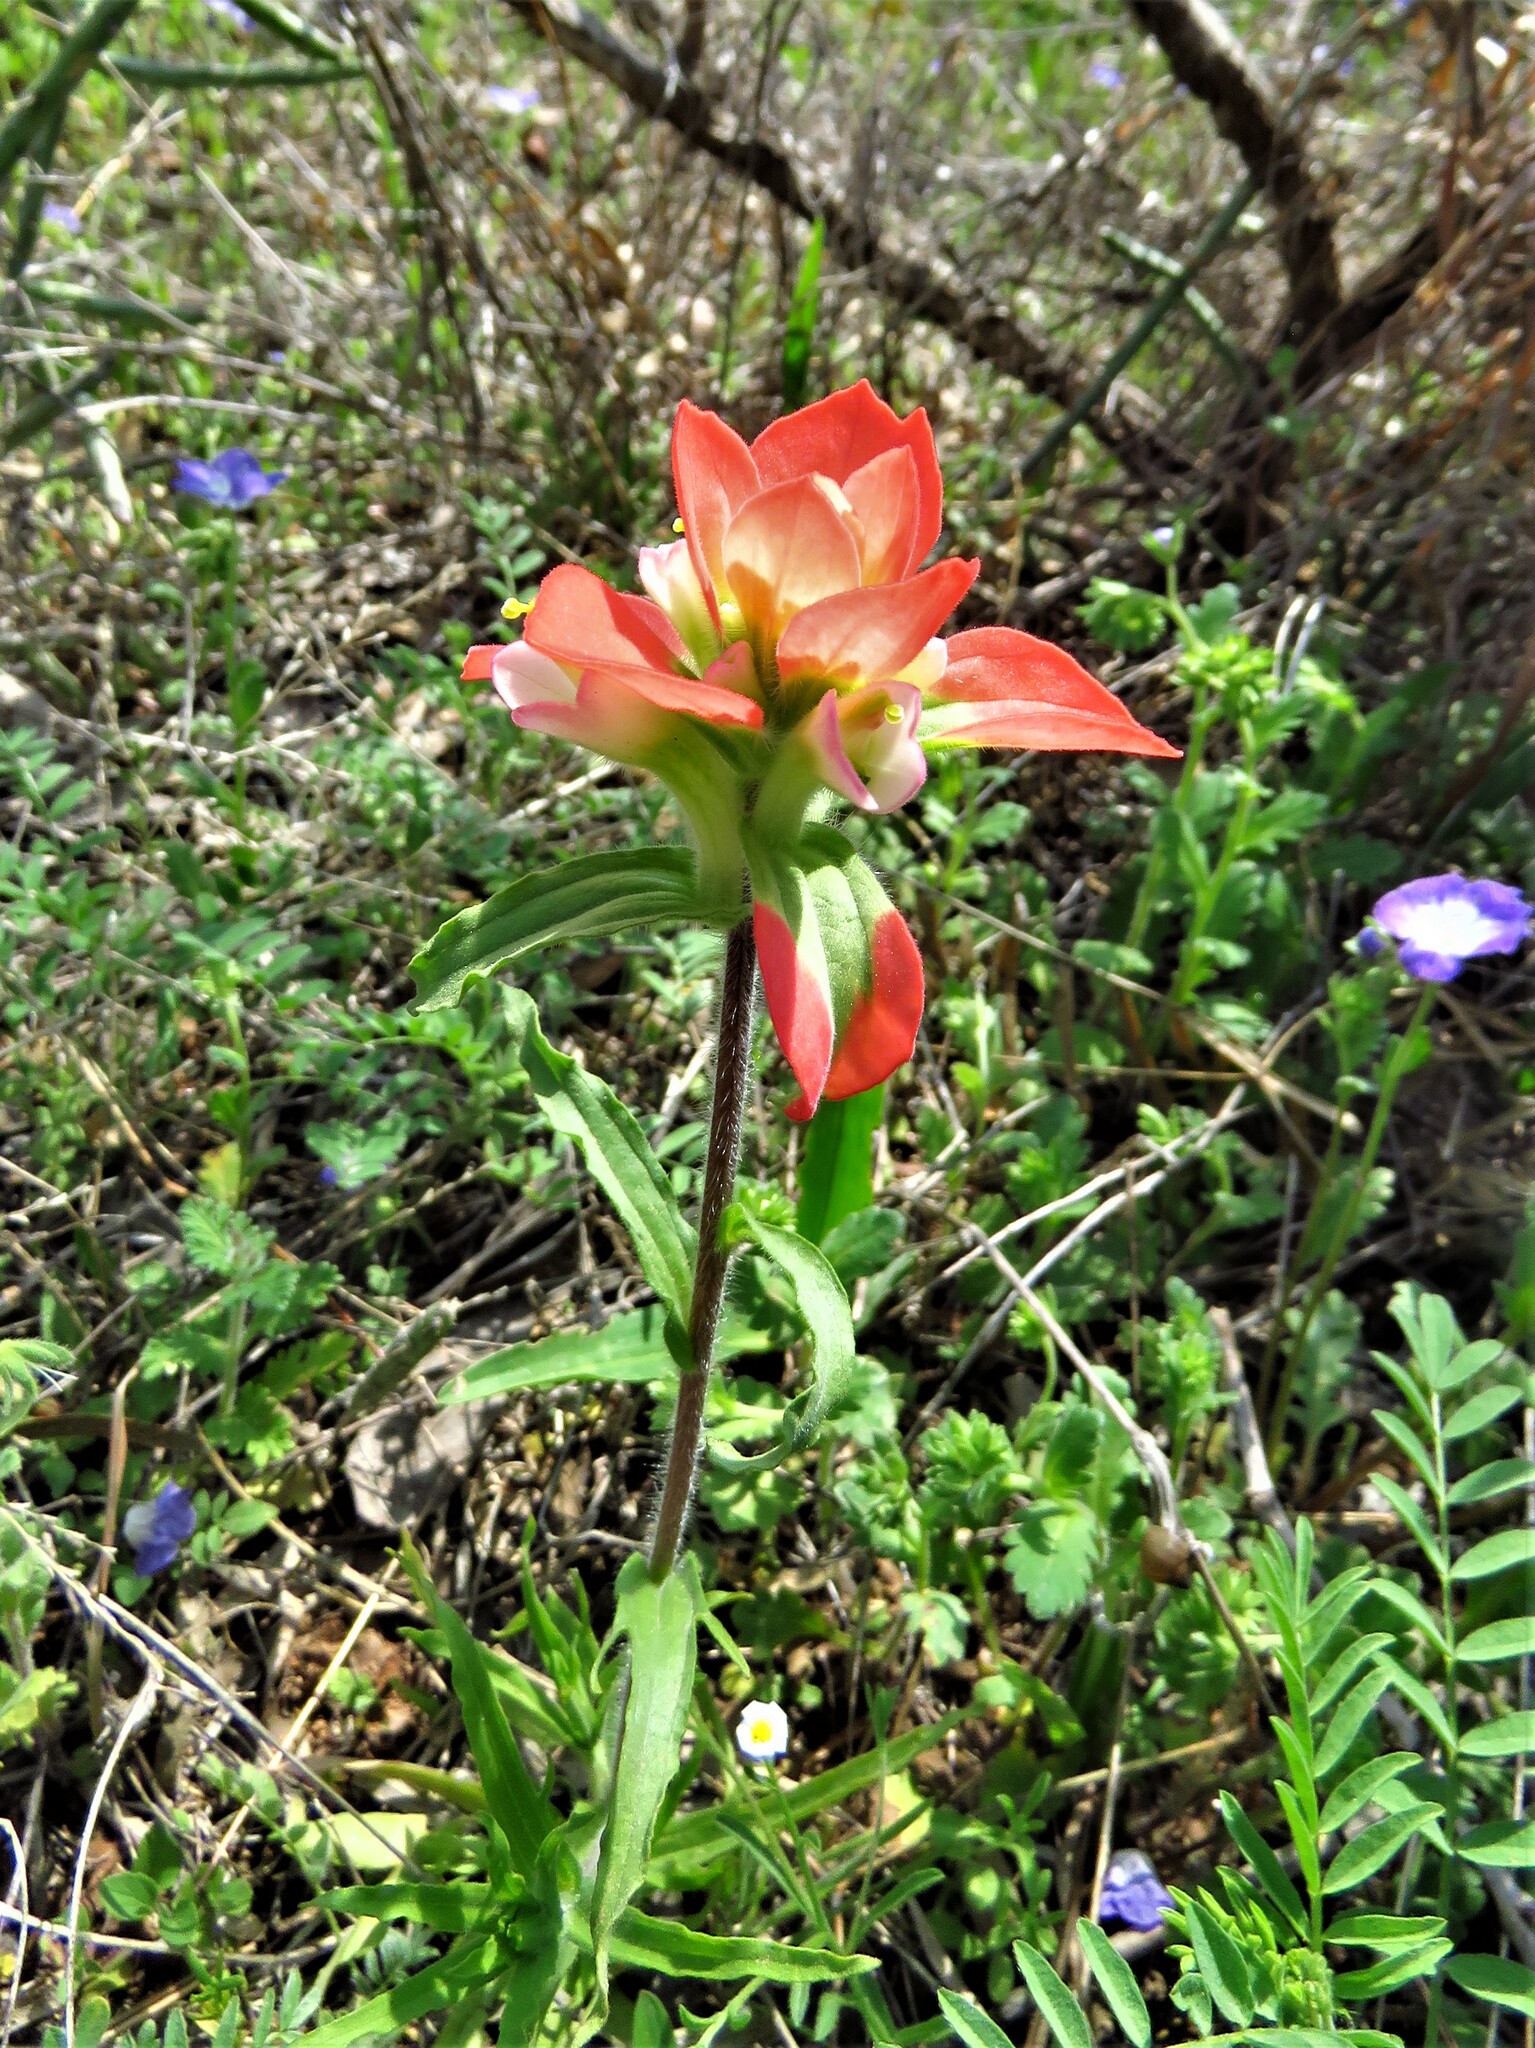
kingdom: Plantae
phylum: Tracheophyta
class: Magnoliopsida
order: Lamiales
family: Orobanchaceae
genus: Castilleja
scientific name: Castilleja indivisa
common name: Texas paintbrush
